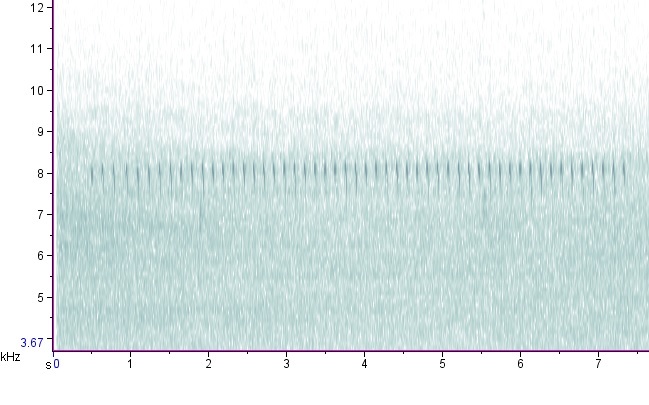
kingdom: Animalia
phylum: Arthropoda
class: Insecta
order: Orthoptera
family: Trigonidiidae
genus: Allonemobius
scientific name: Allonemobius tinnulus
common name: Tinkling ground cricket
